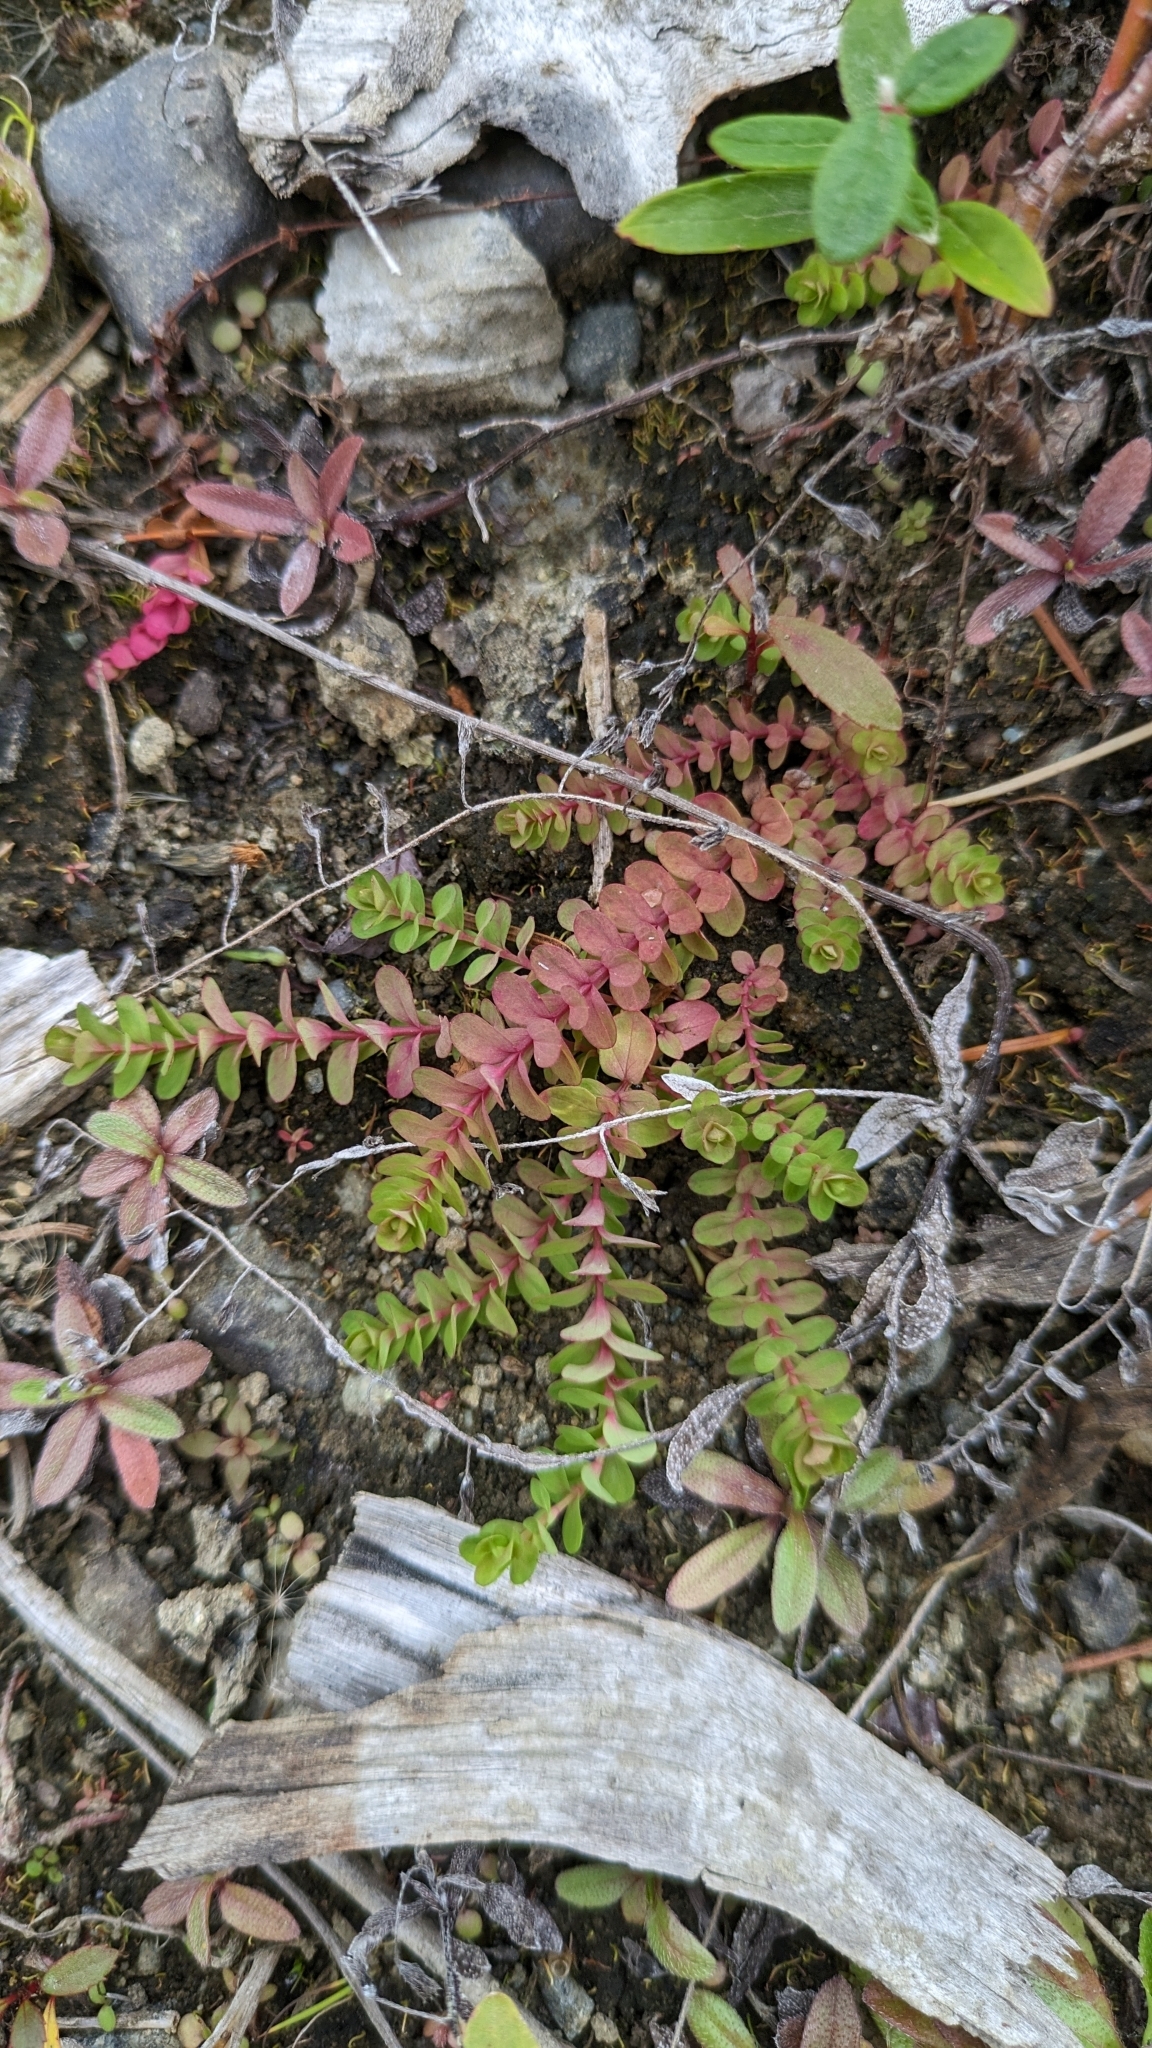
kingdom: Plantae
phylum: Tracheophyta
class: Magnoliopsida
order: Malpighiales
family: Hypericaceae
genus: Hypericum
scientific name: Hypericum anagalloides
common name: Bog st. john's-wort
